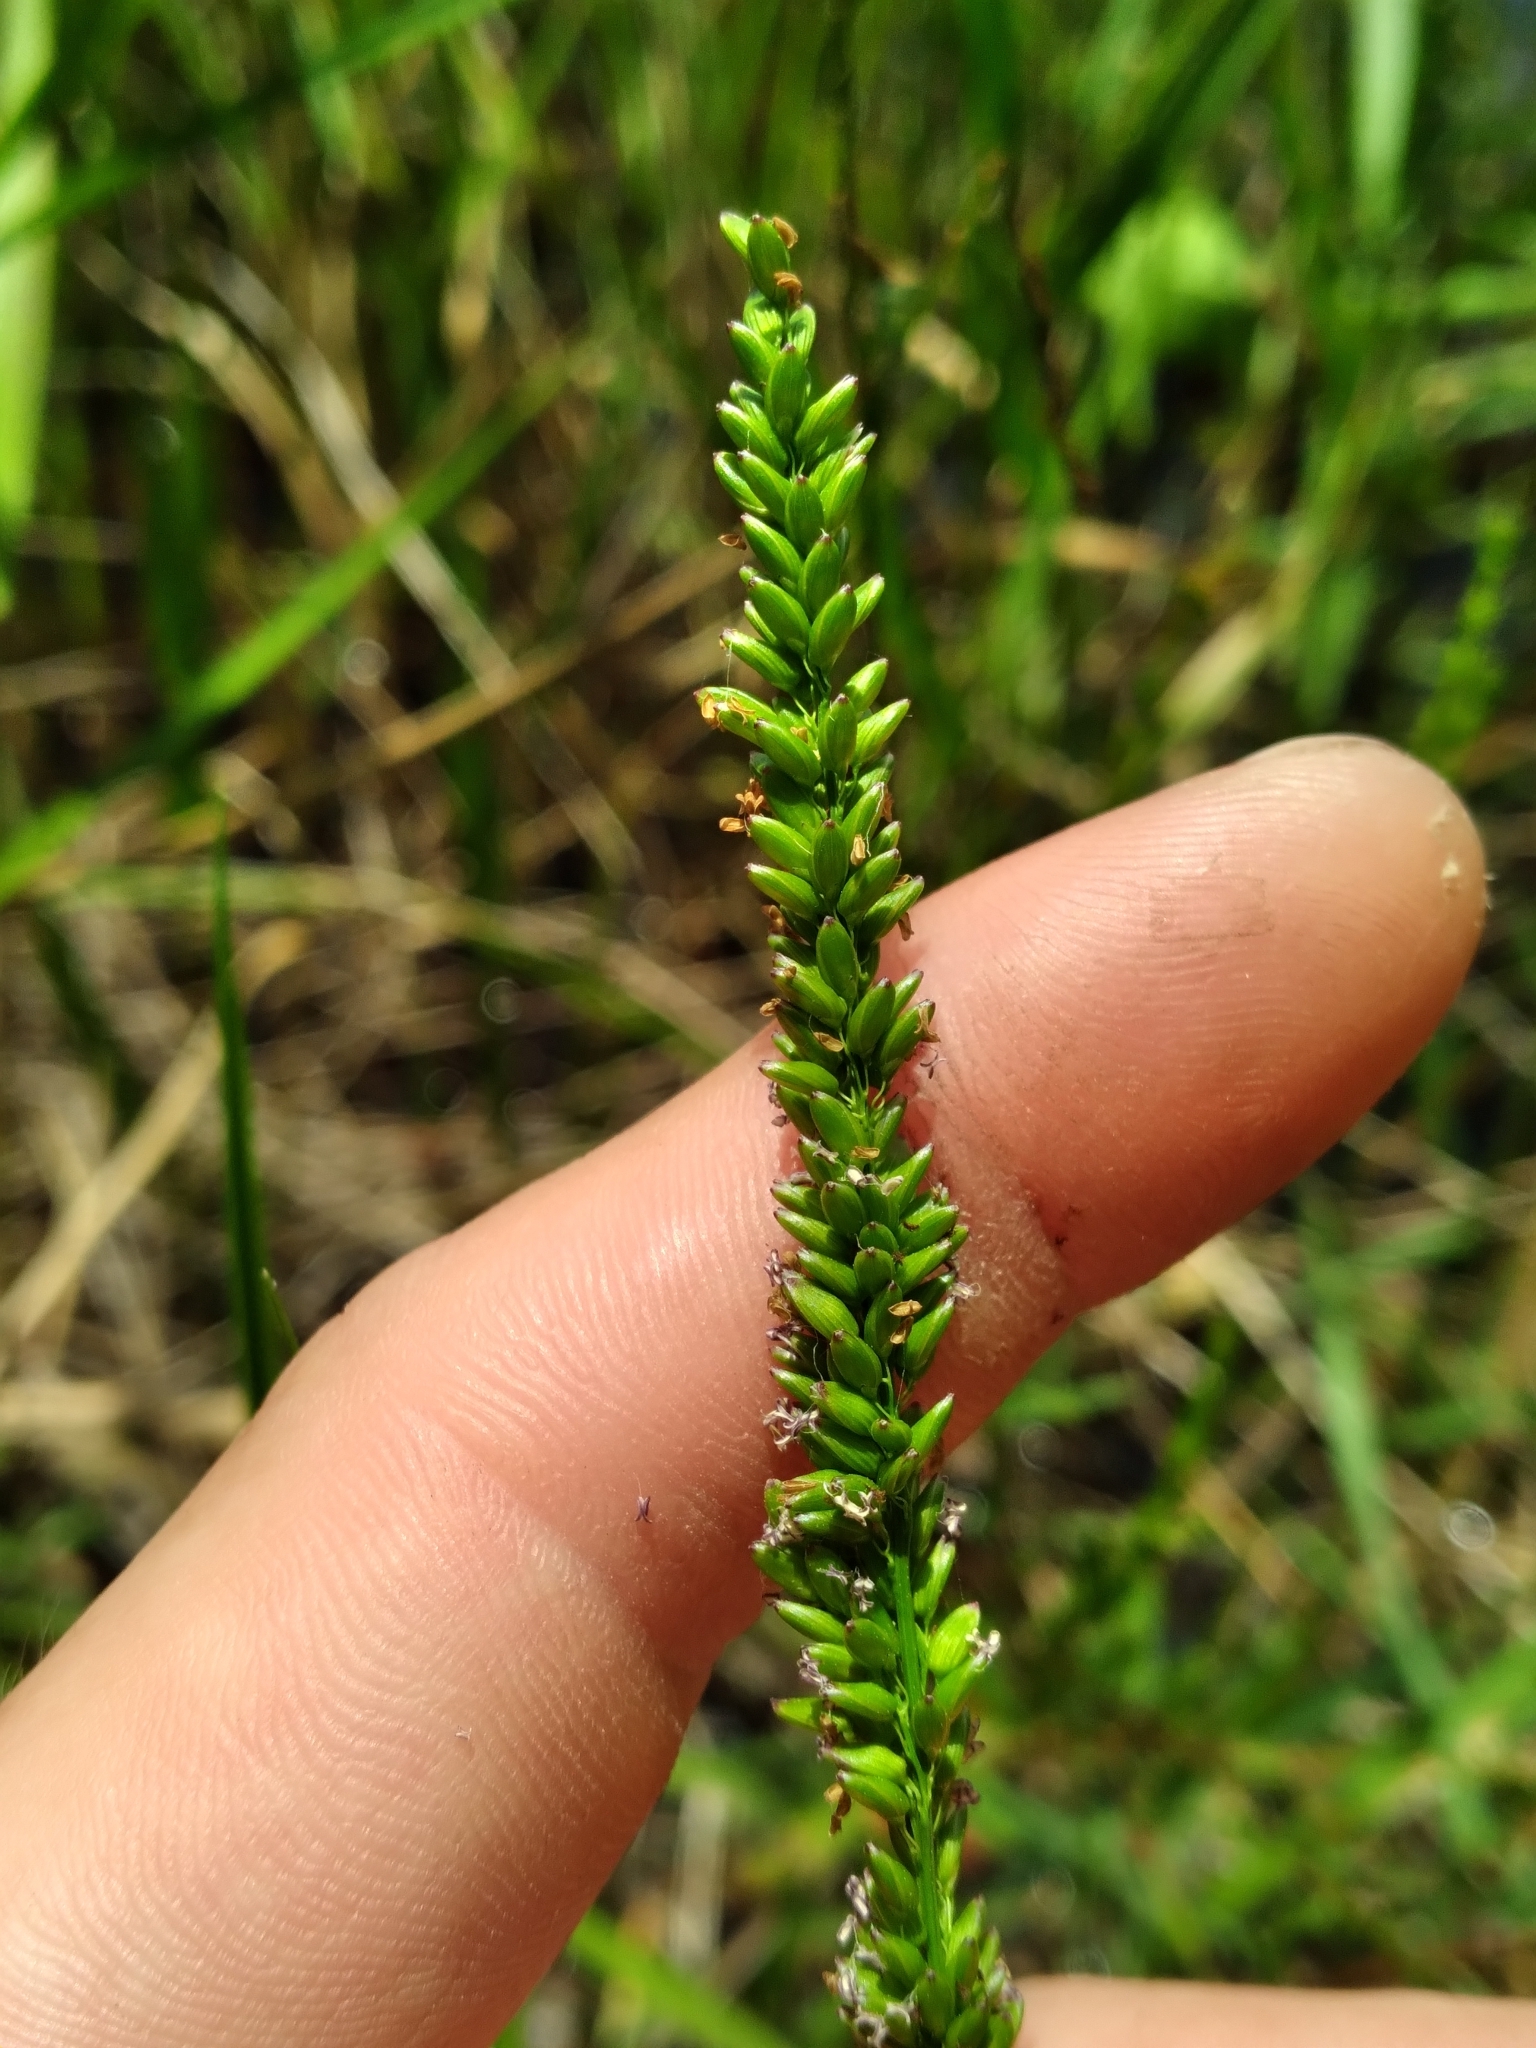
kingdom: Plantae
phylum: Tracheophyta
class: Liliopsida
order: Poales
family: Poaceae
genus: Sacciolepis
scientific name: Sacciolepis striata
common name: American cupscale
